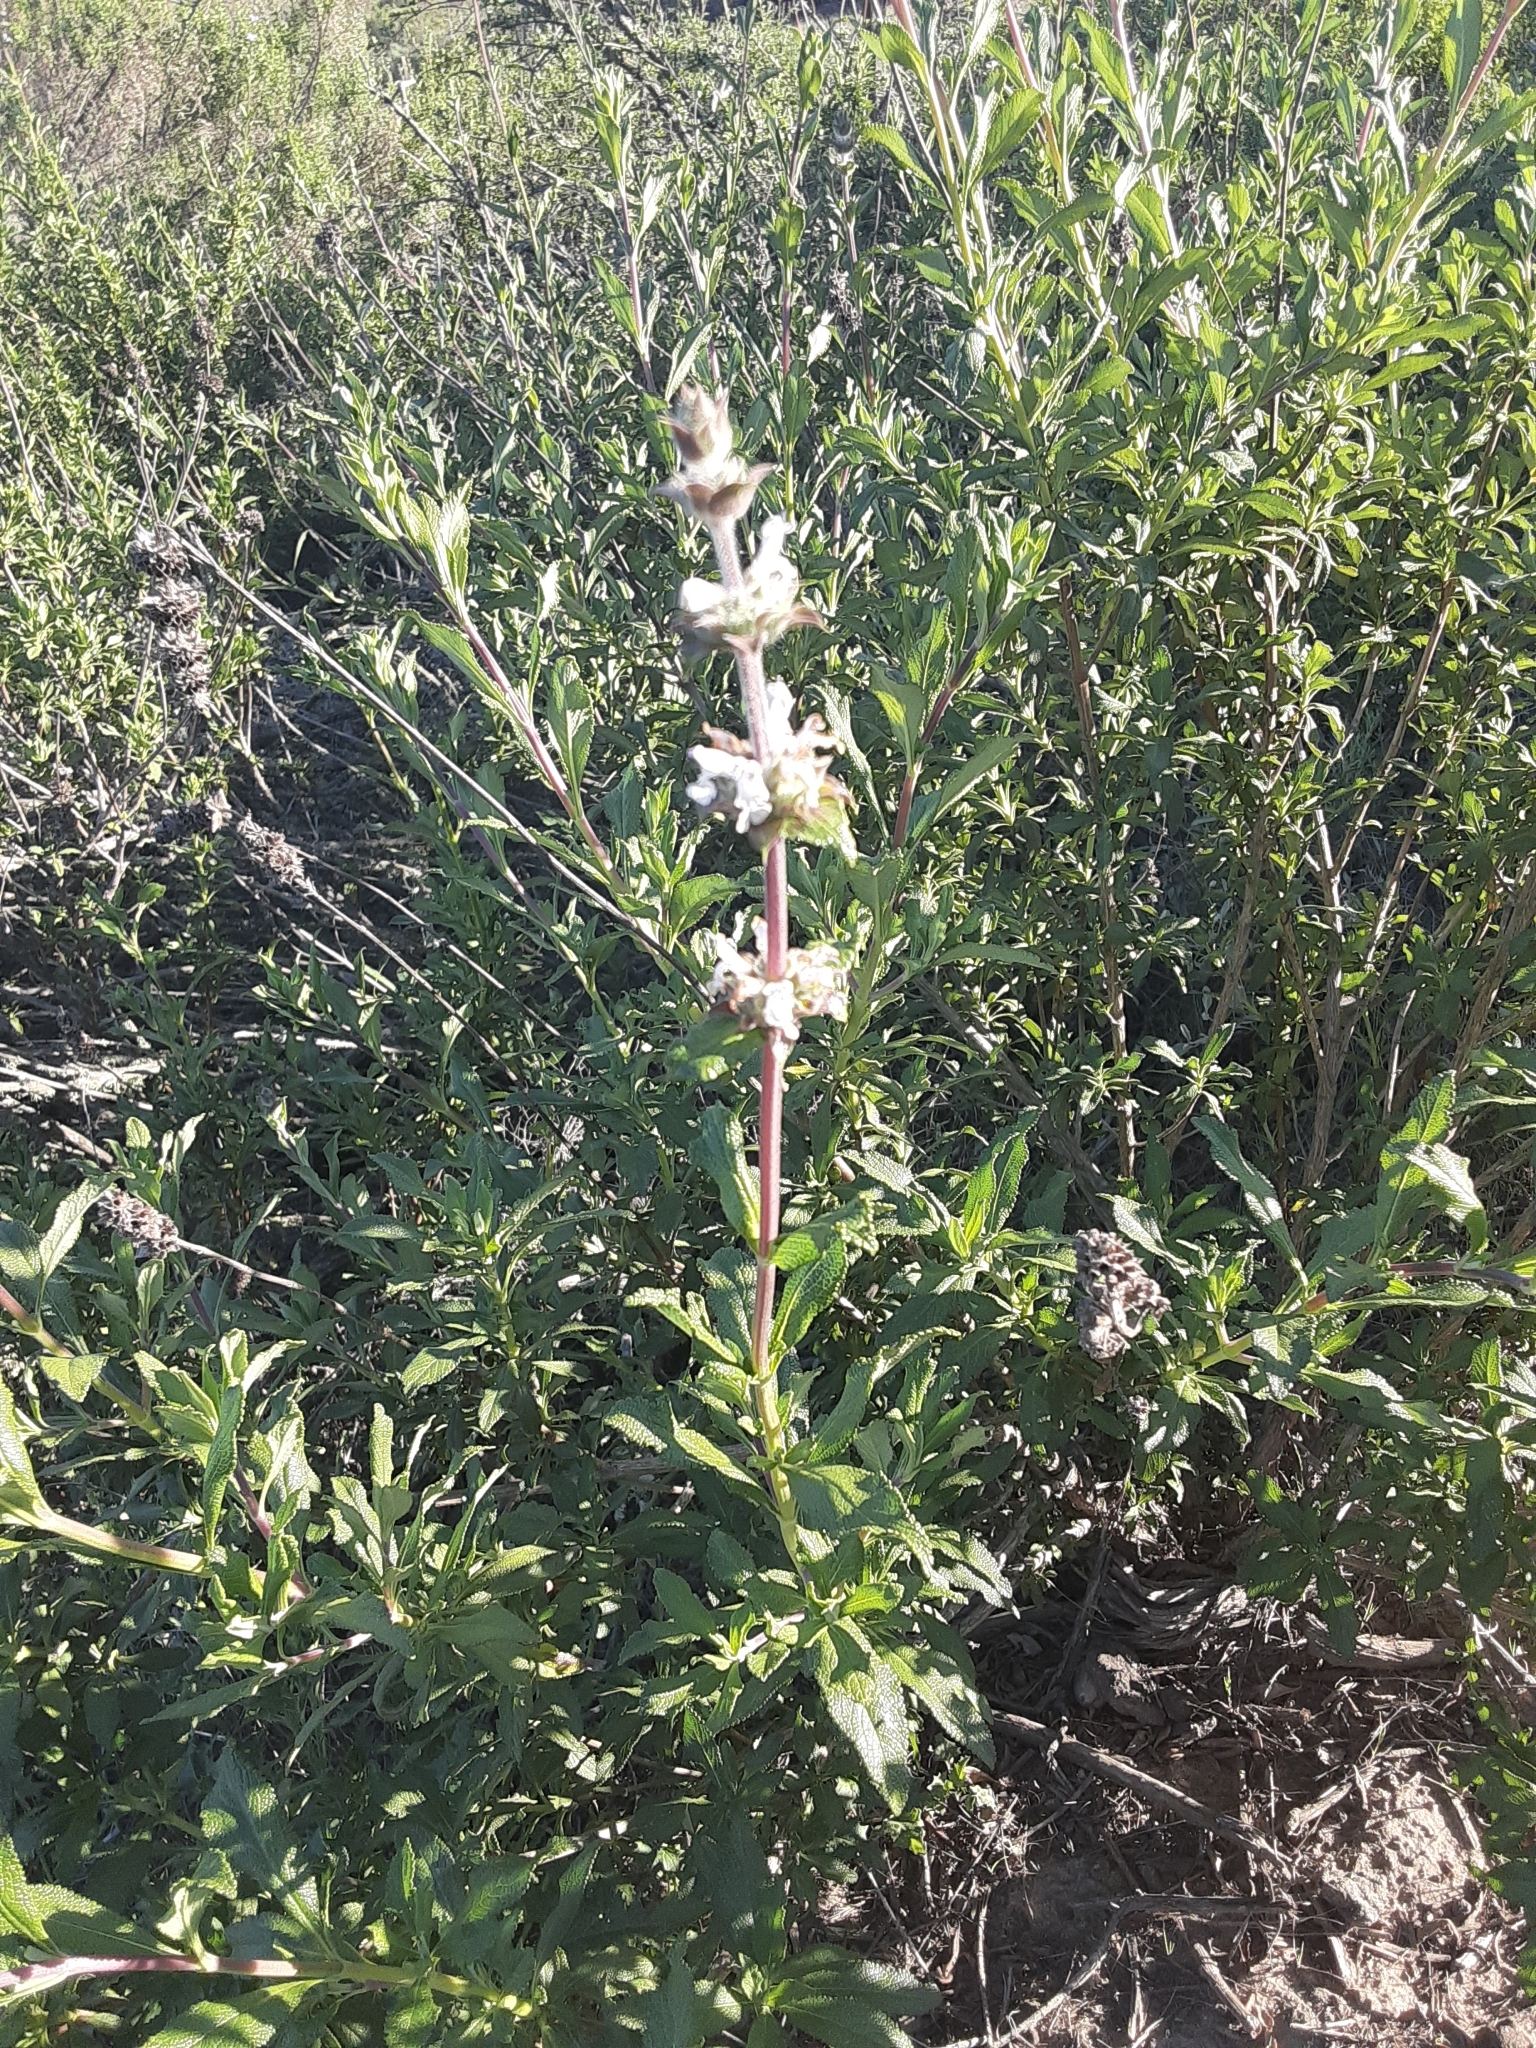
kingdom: Plantae
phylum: Tracheophyta
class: Magnoliopsida
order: Lamiales
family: Lamiaceae
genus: Salvia
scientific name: Salvia mellifera
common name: Black sage
